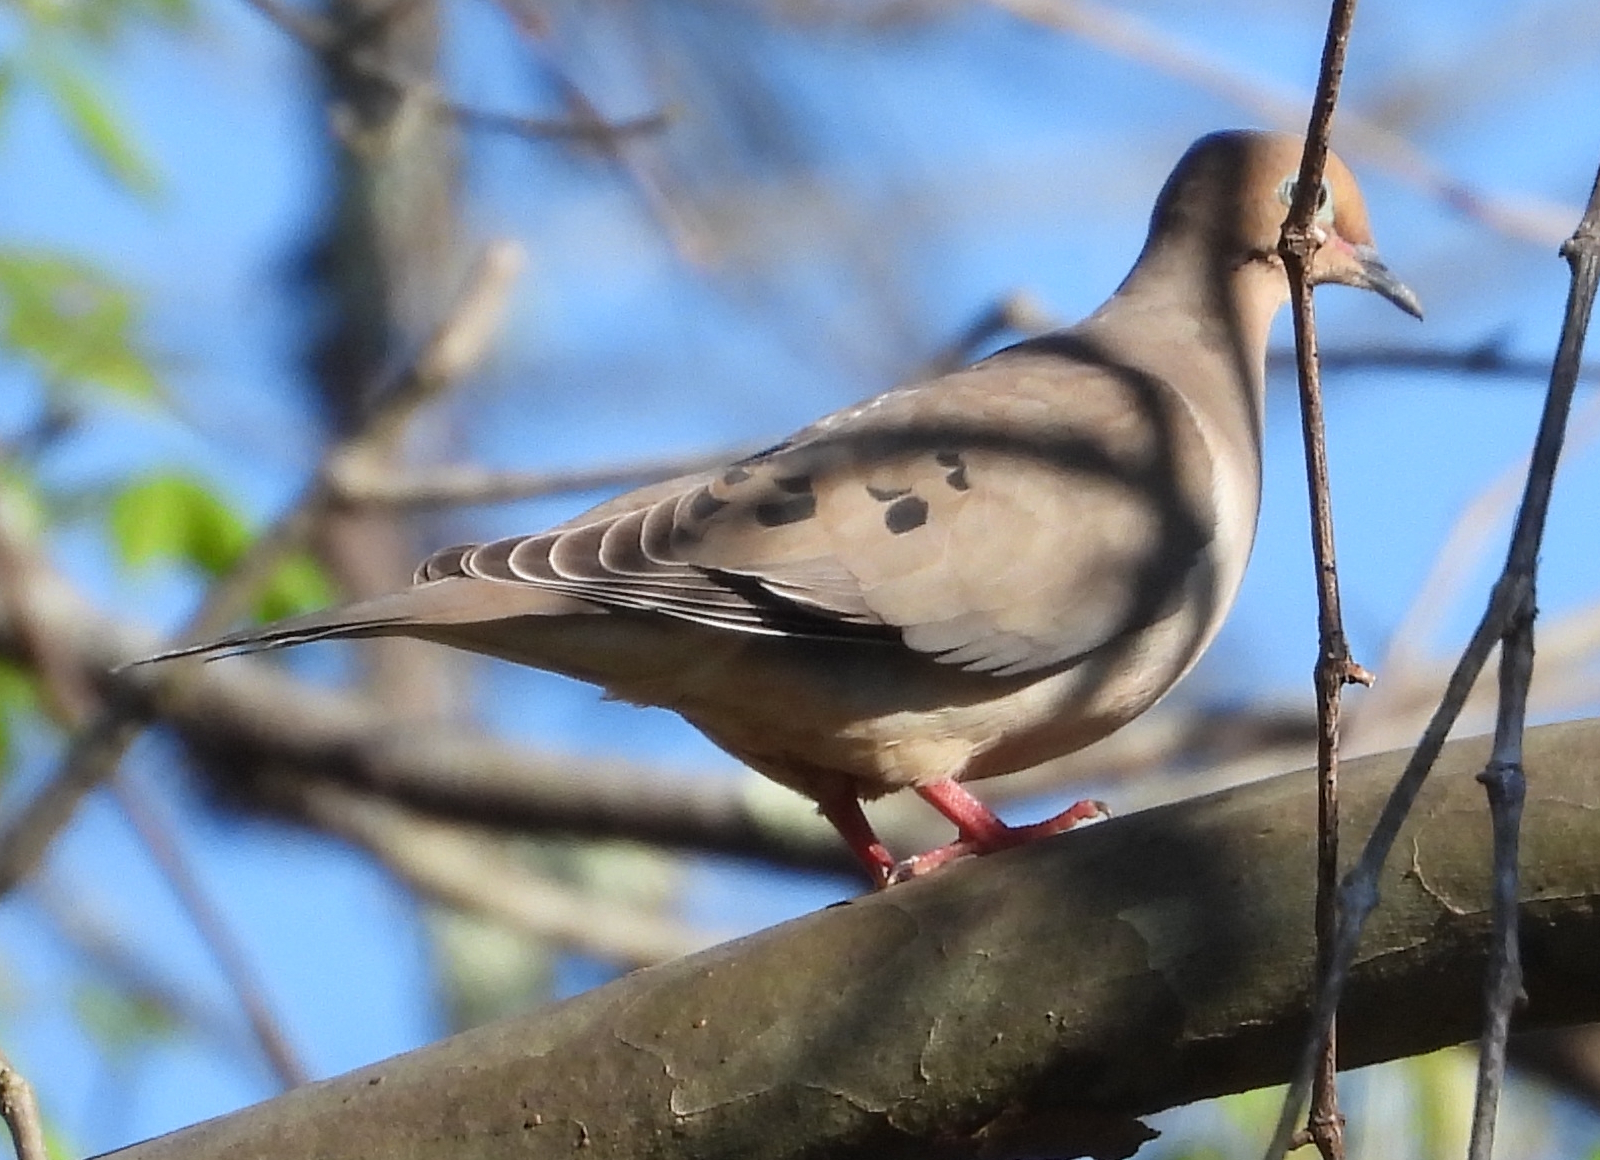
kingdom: Animalia
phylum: Chordata
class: Aves
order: Columbiformes
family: Columbidae
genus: Zenaida
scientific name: Zenaida macroura
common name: Mourning dove
